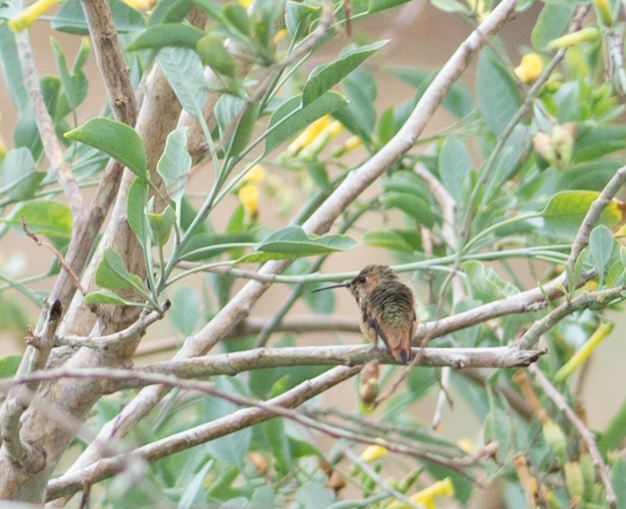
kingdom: Animalia
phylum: Chordata
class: Aves
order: Apodiformes
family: Trochilidae
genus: Selasphorus
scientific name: Selasphorus
